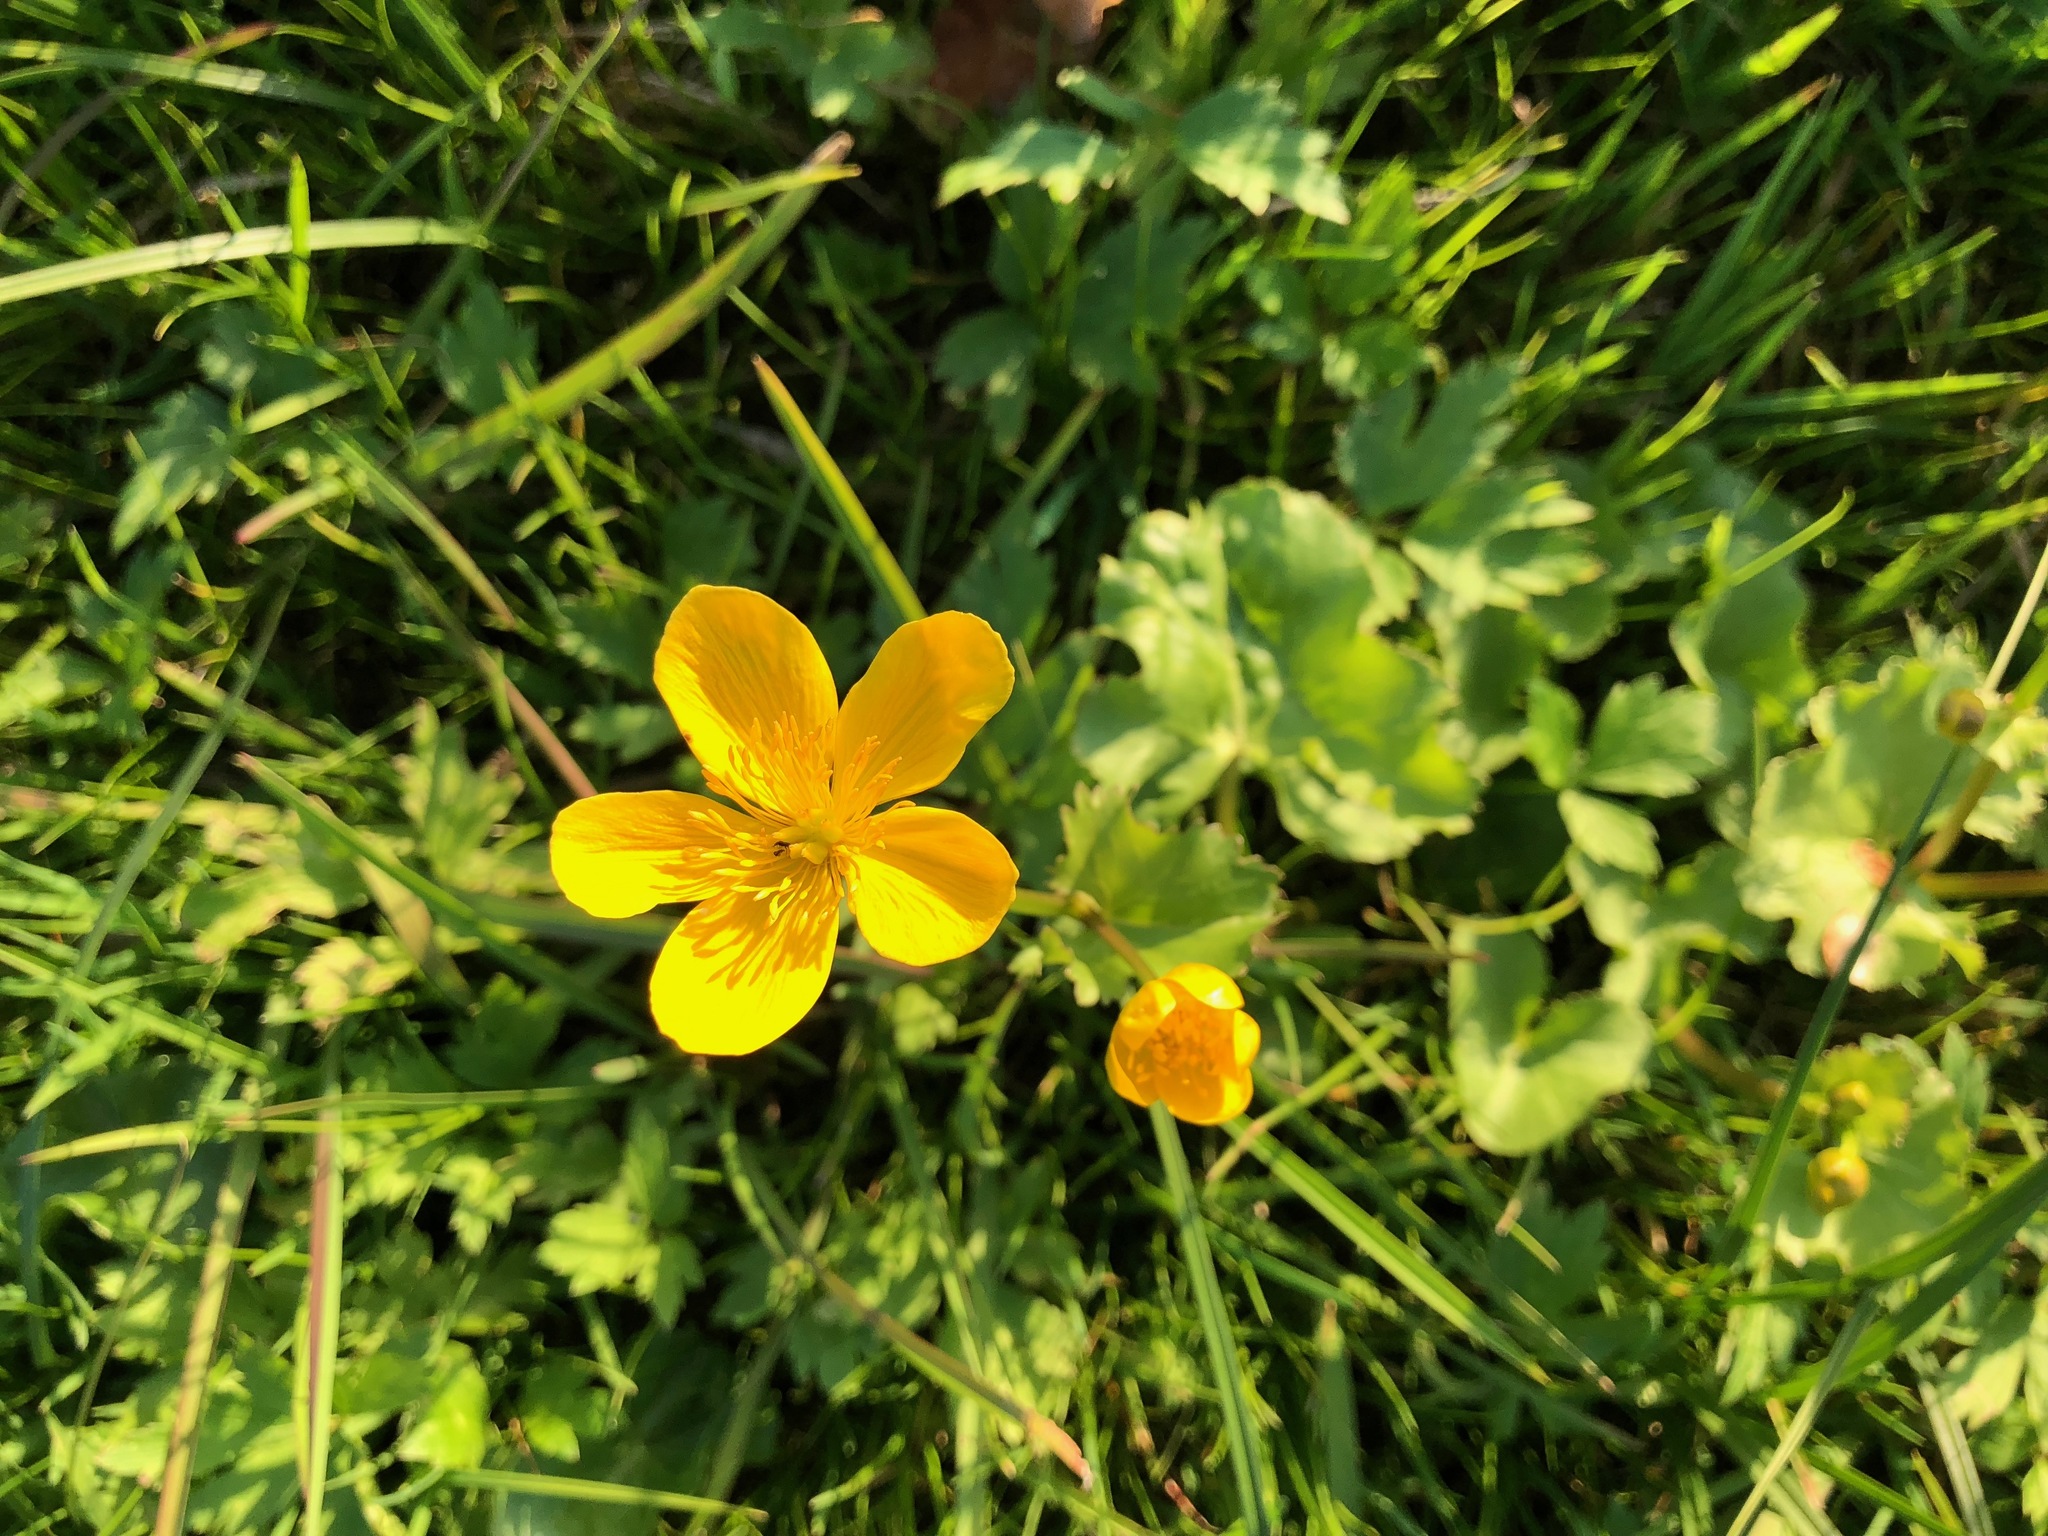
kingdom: Plantae
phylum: Tracheophyta
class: Magnoliopsida
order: Ranunculales
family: Ranunculaceae
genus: Caltha
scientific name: Caltha palustris
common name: Marsh marigold
